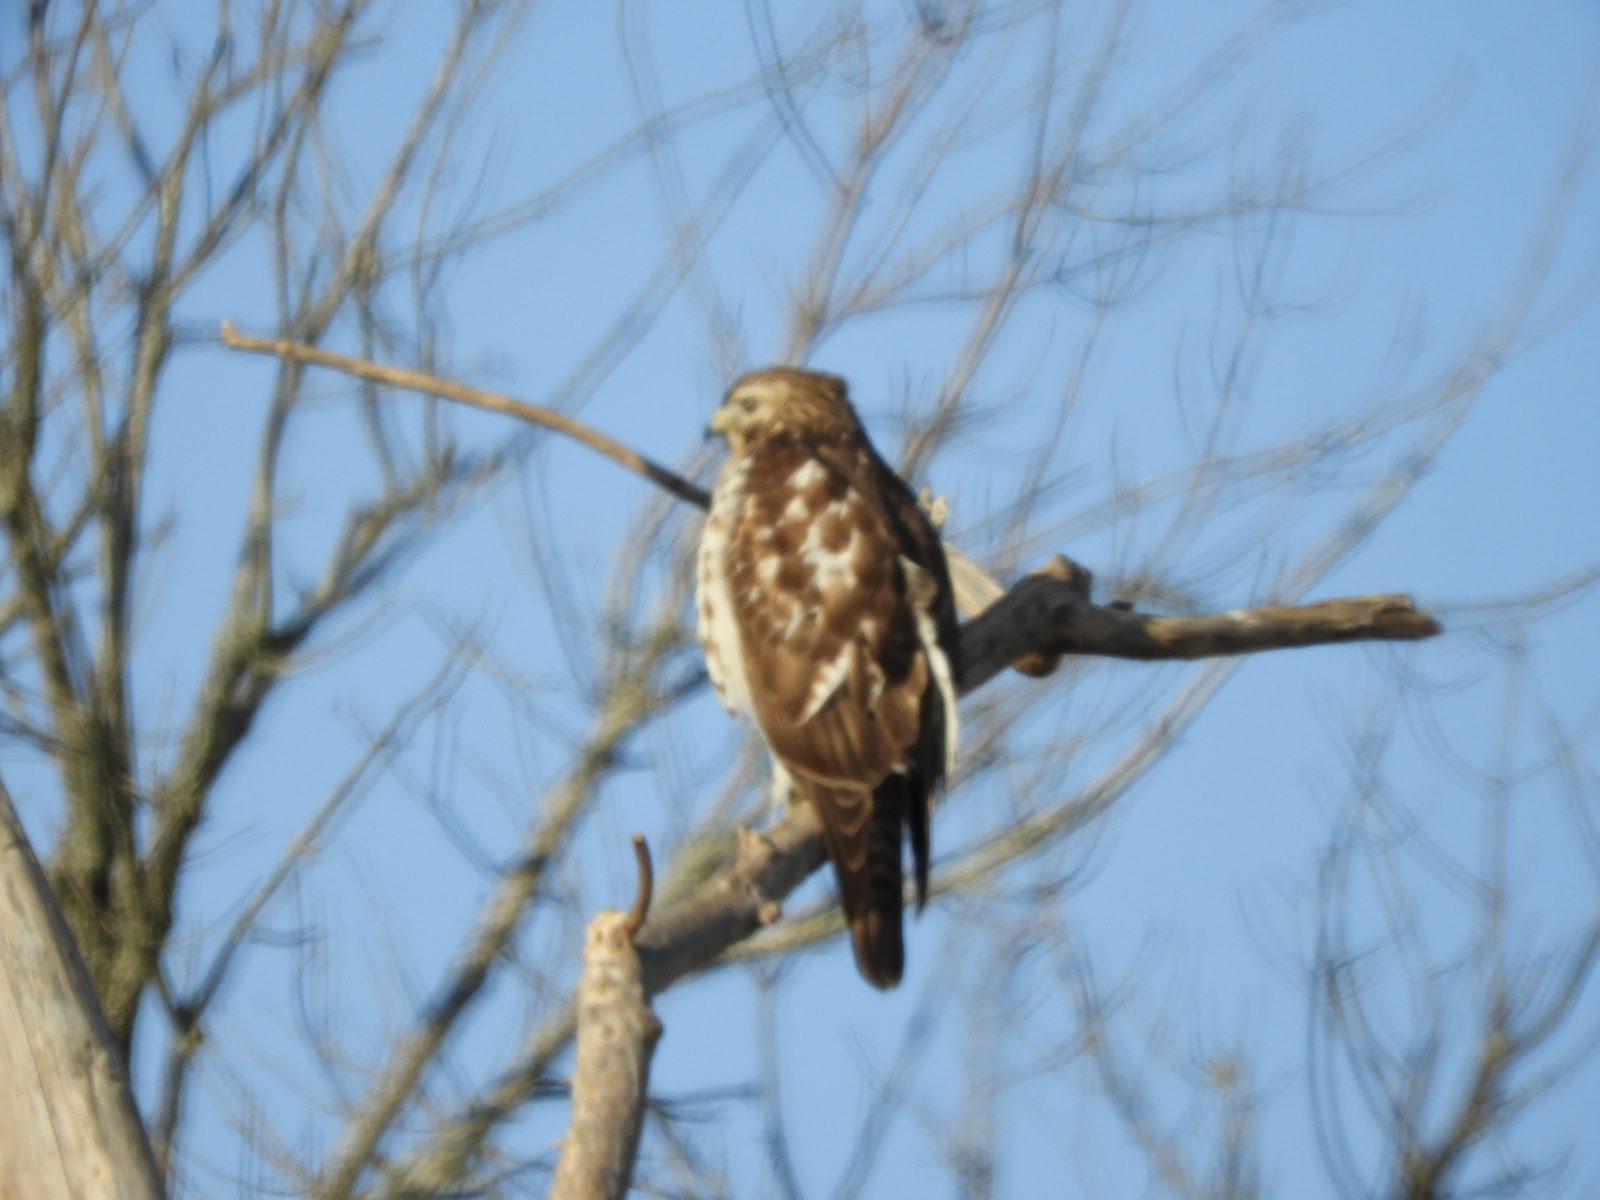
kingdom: Animalia
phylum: Chordata
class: Aves
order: Accipitriformes
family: Accipitridae
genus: Buteo
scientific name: Buteo lineatus
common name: Red-shouldered hawk
